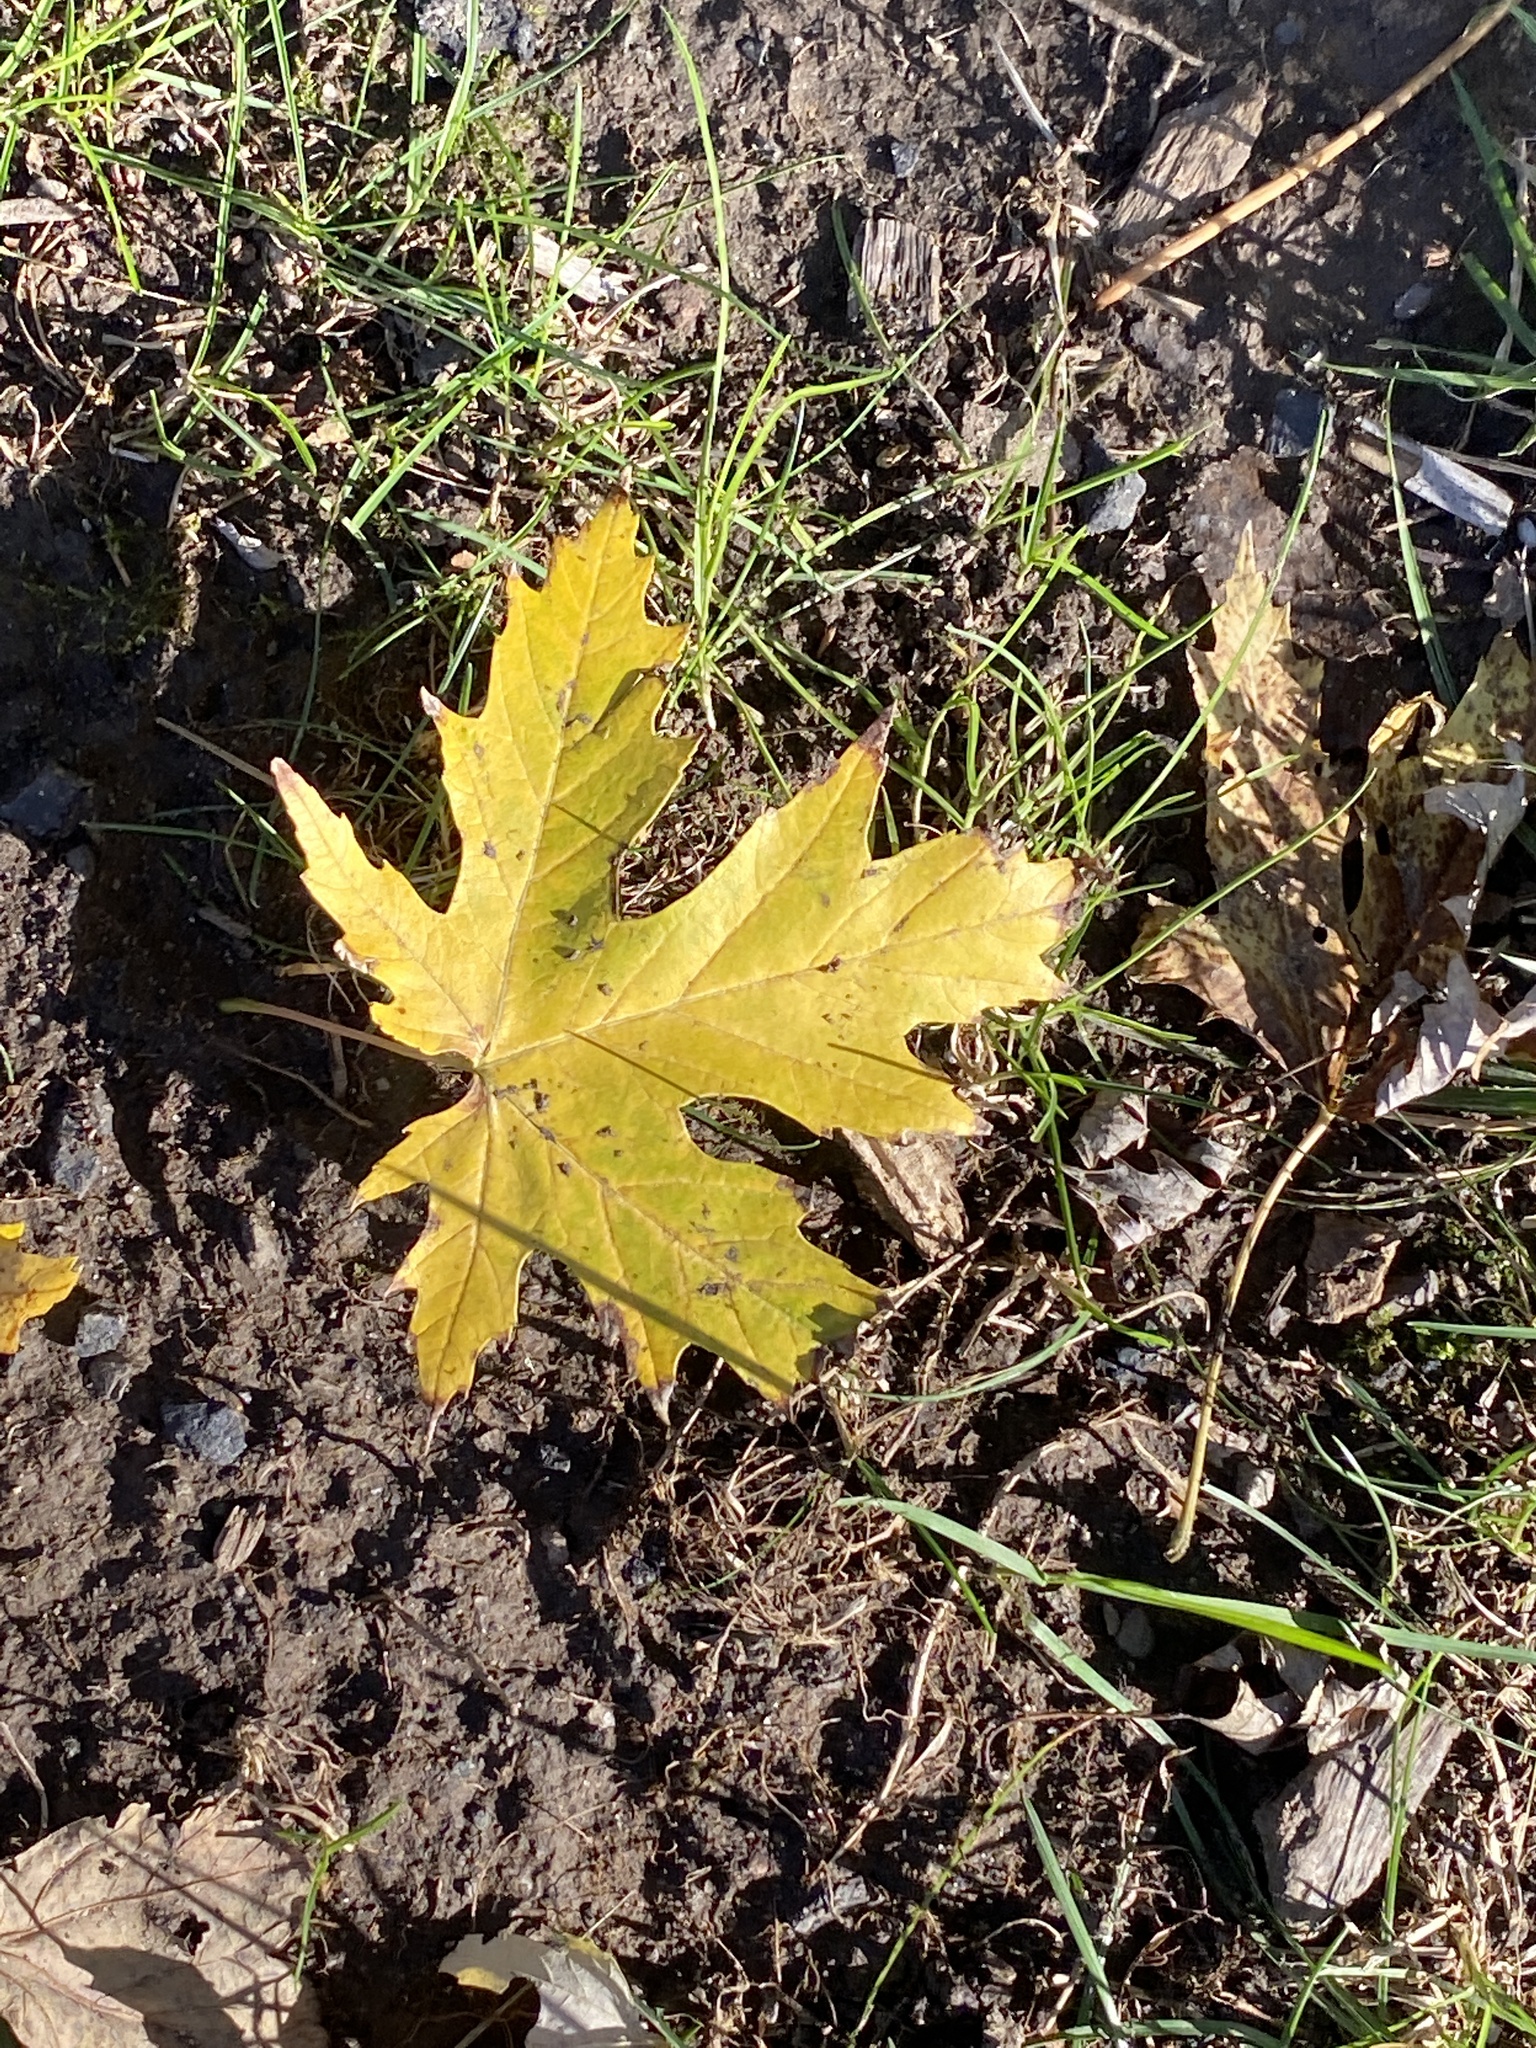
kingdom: Plantae
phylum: Tracheophyta
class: Magnoliopsida
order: Sapindales
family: Sapindaceae
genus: Acer
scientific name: Acer saccharinum
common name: Silver maple
